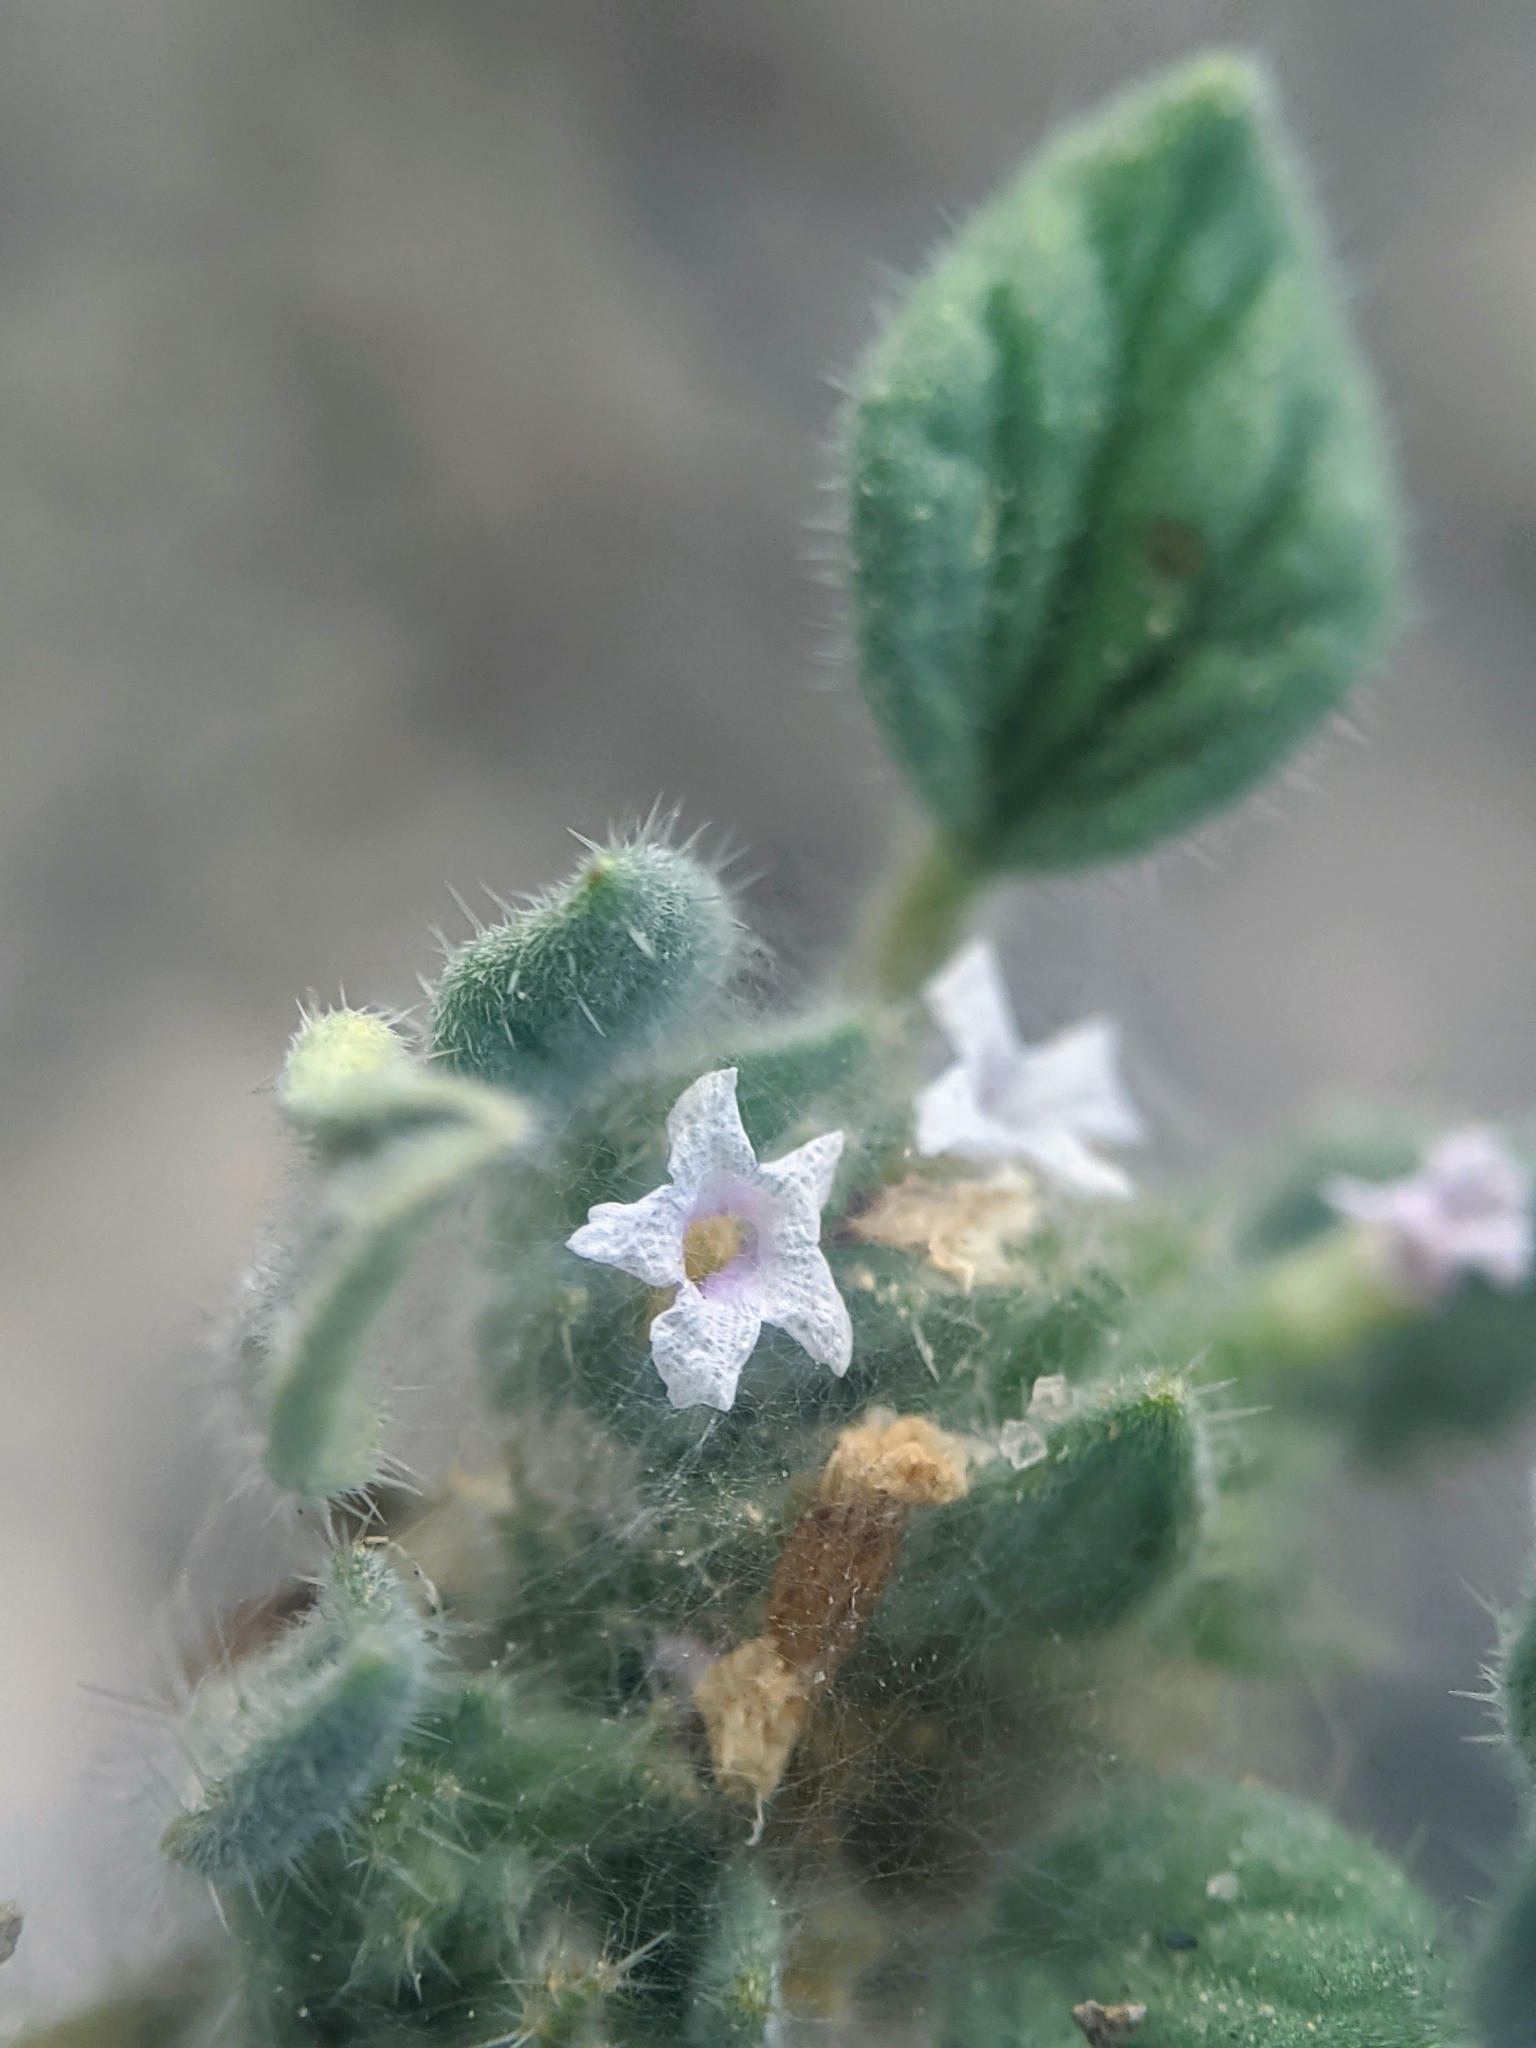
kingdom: Plantae
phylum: Tracheophyta
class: Magnoliopsida
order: Boraginales
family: Ehretiaceae
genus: Tiquilia
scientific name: Tiquilia nuttallii
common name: Rosette tiquilia
